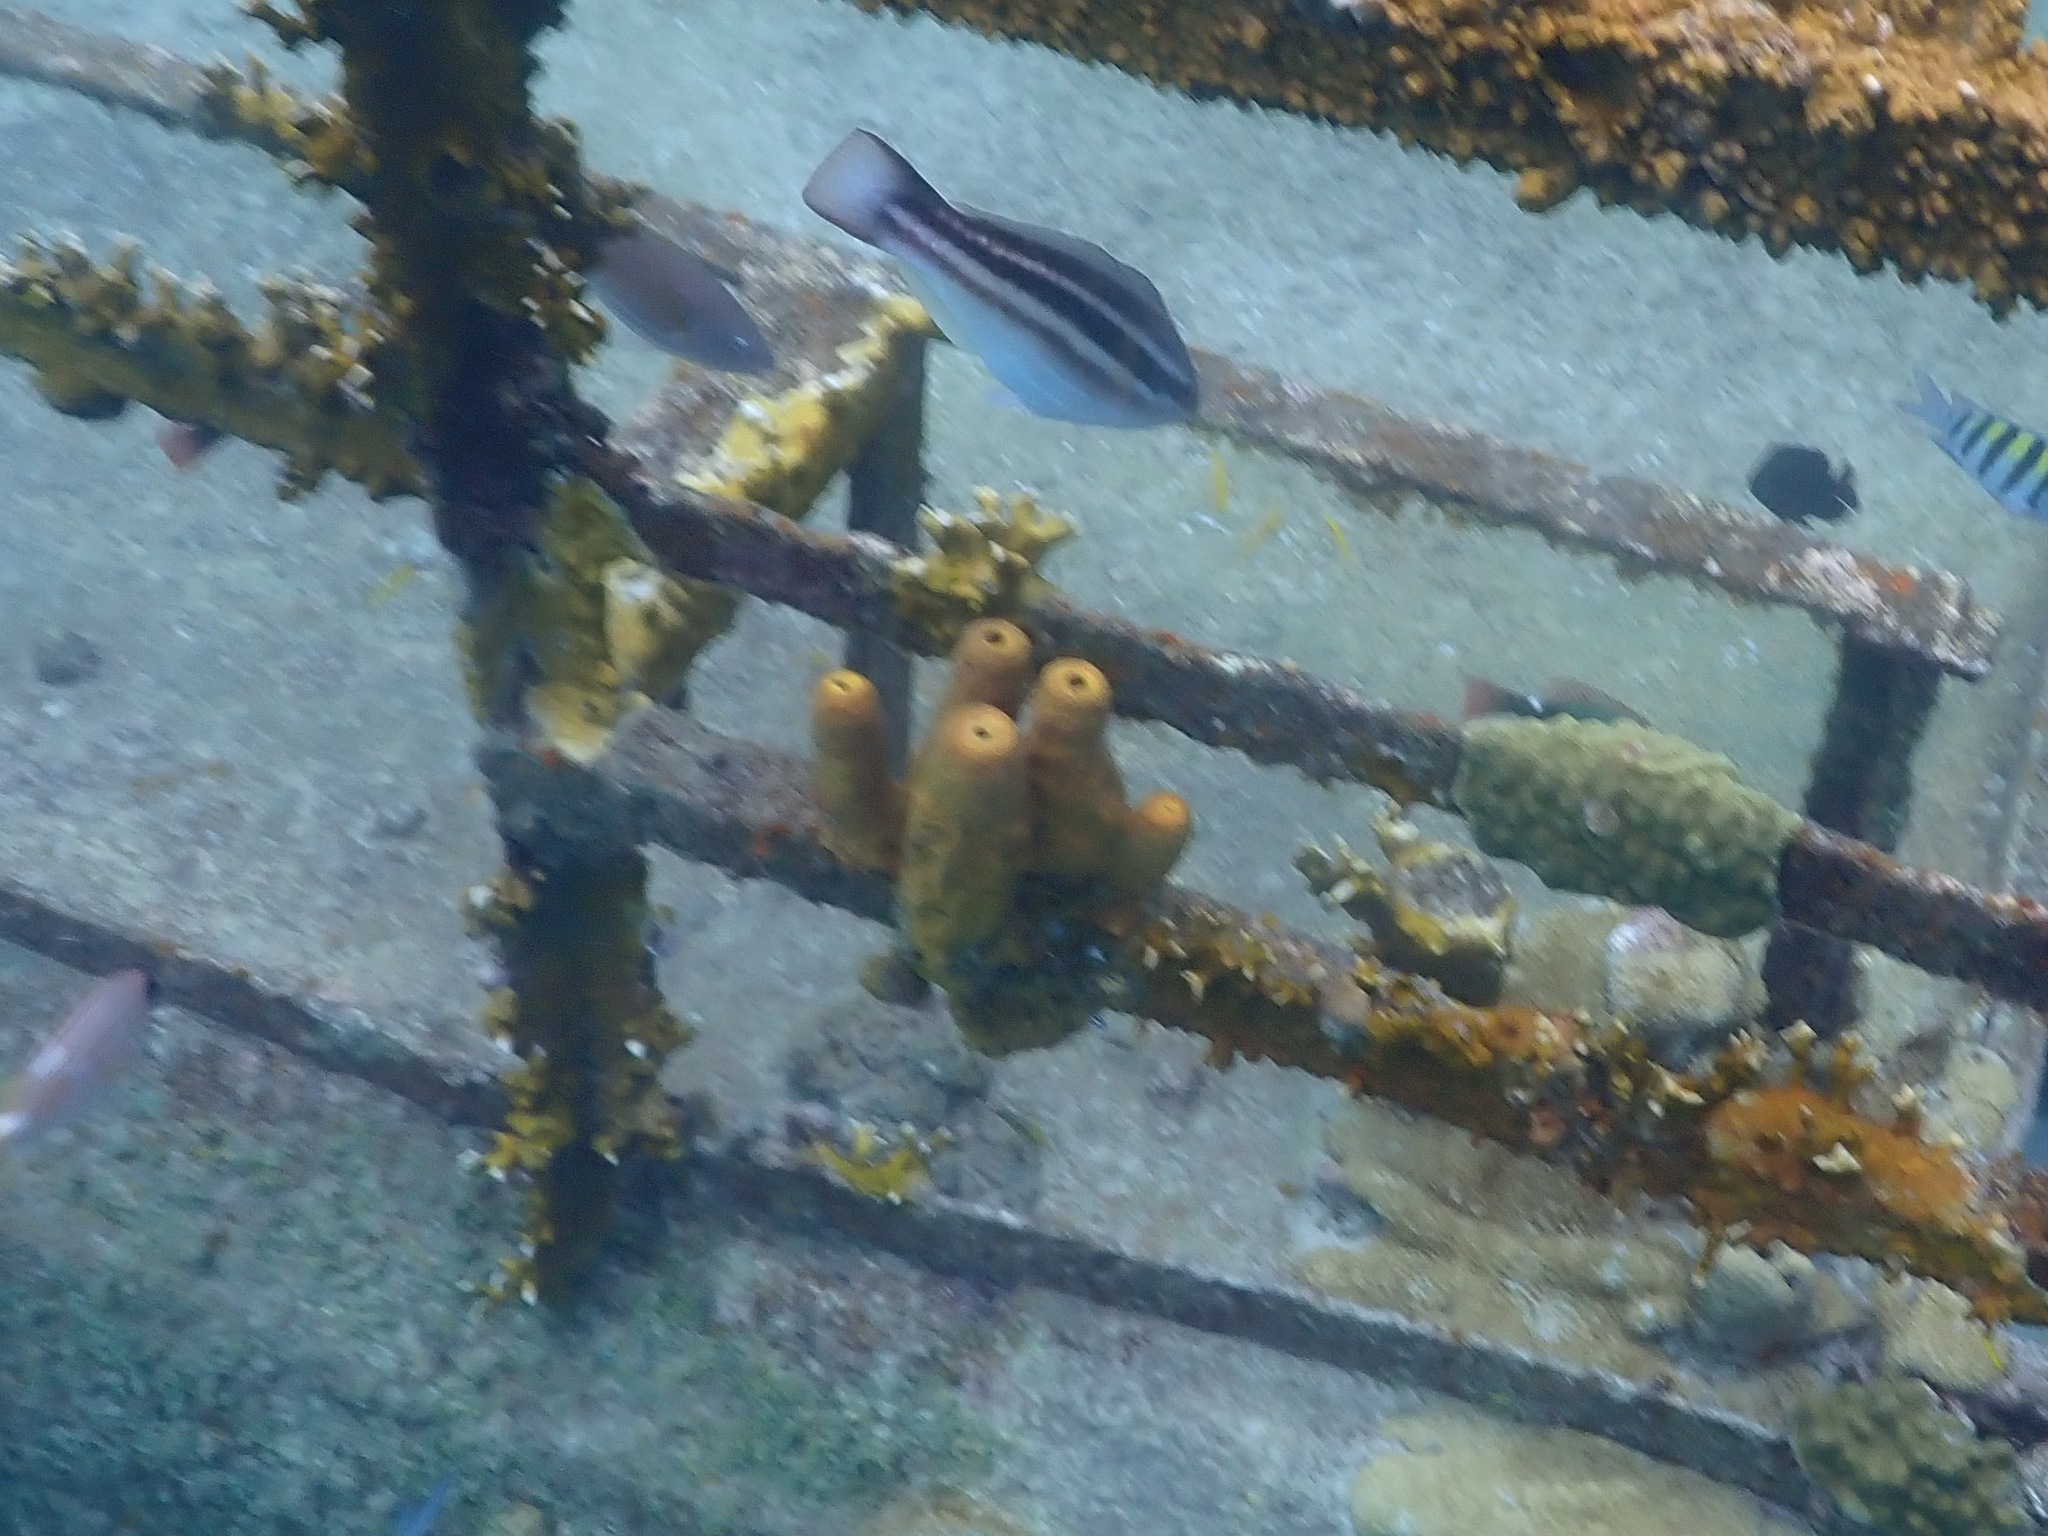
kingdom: Animalia
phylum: Porifera
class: Demospongiae
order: Verongiida
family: Aplysinidae
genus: Aplysina
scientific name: Aplysina fistularis
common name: Candle sponge
